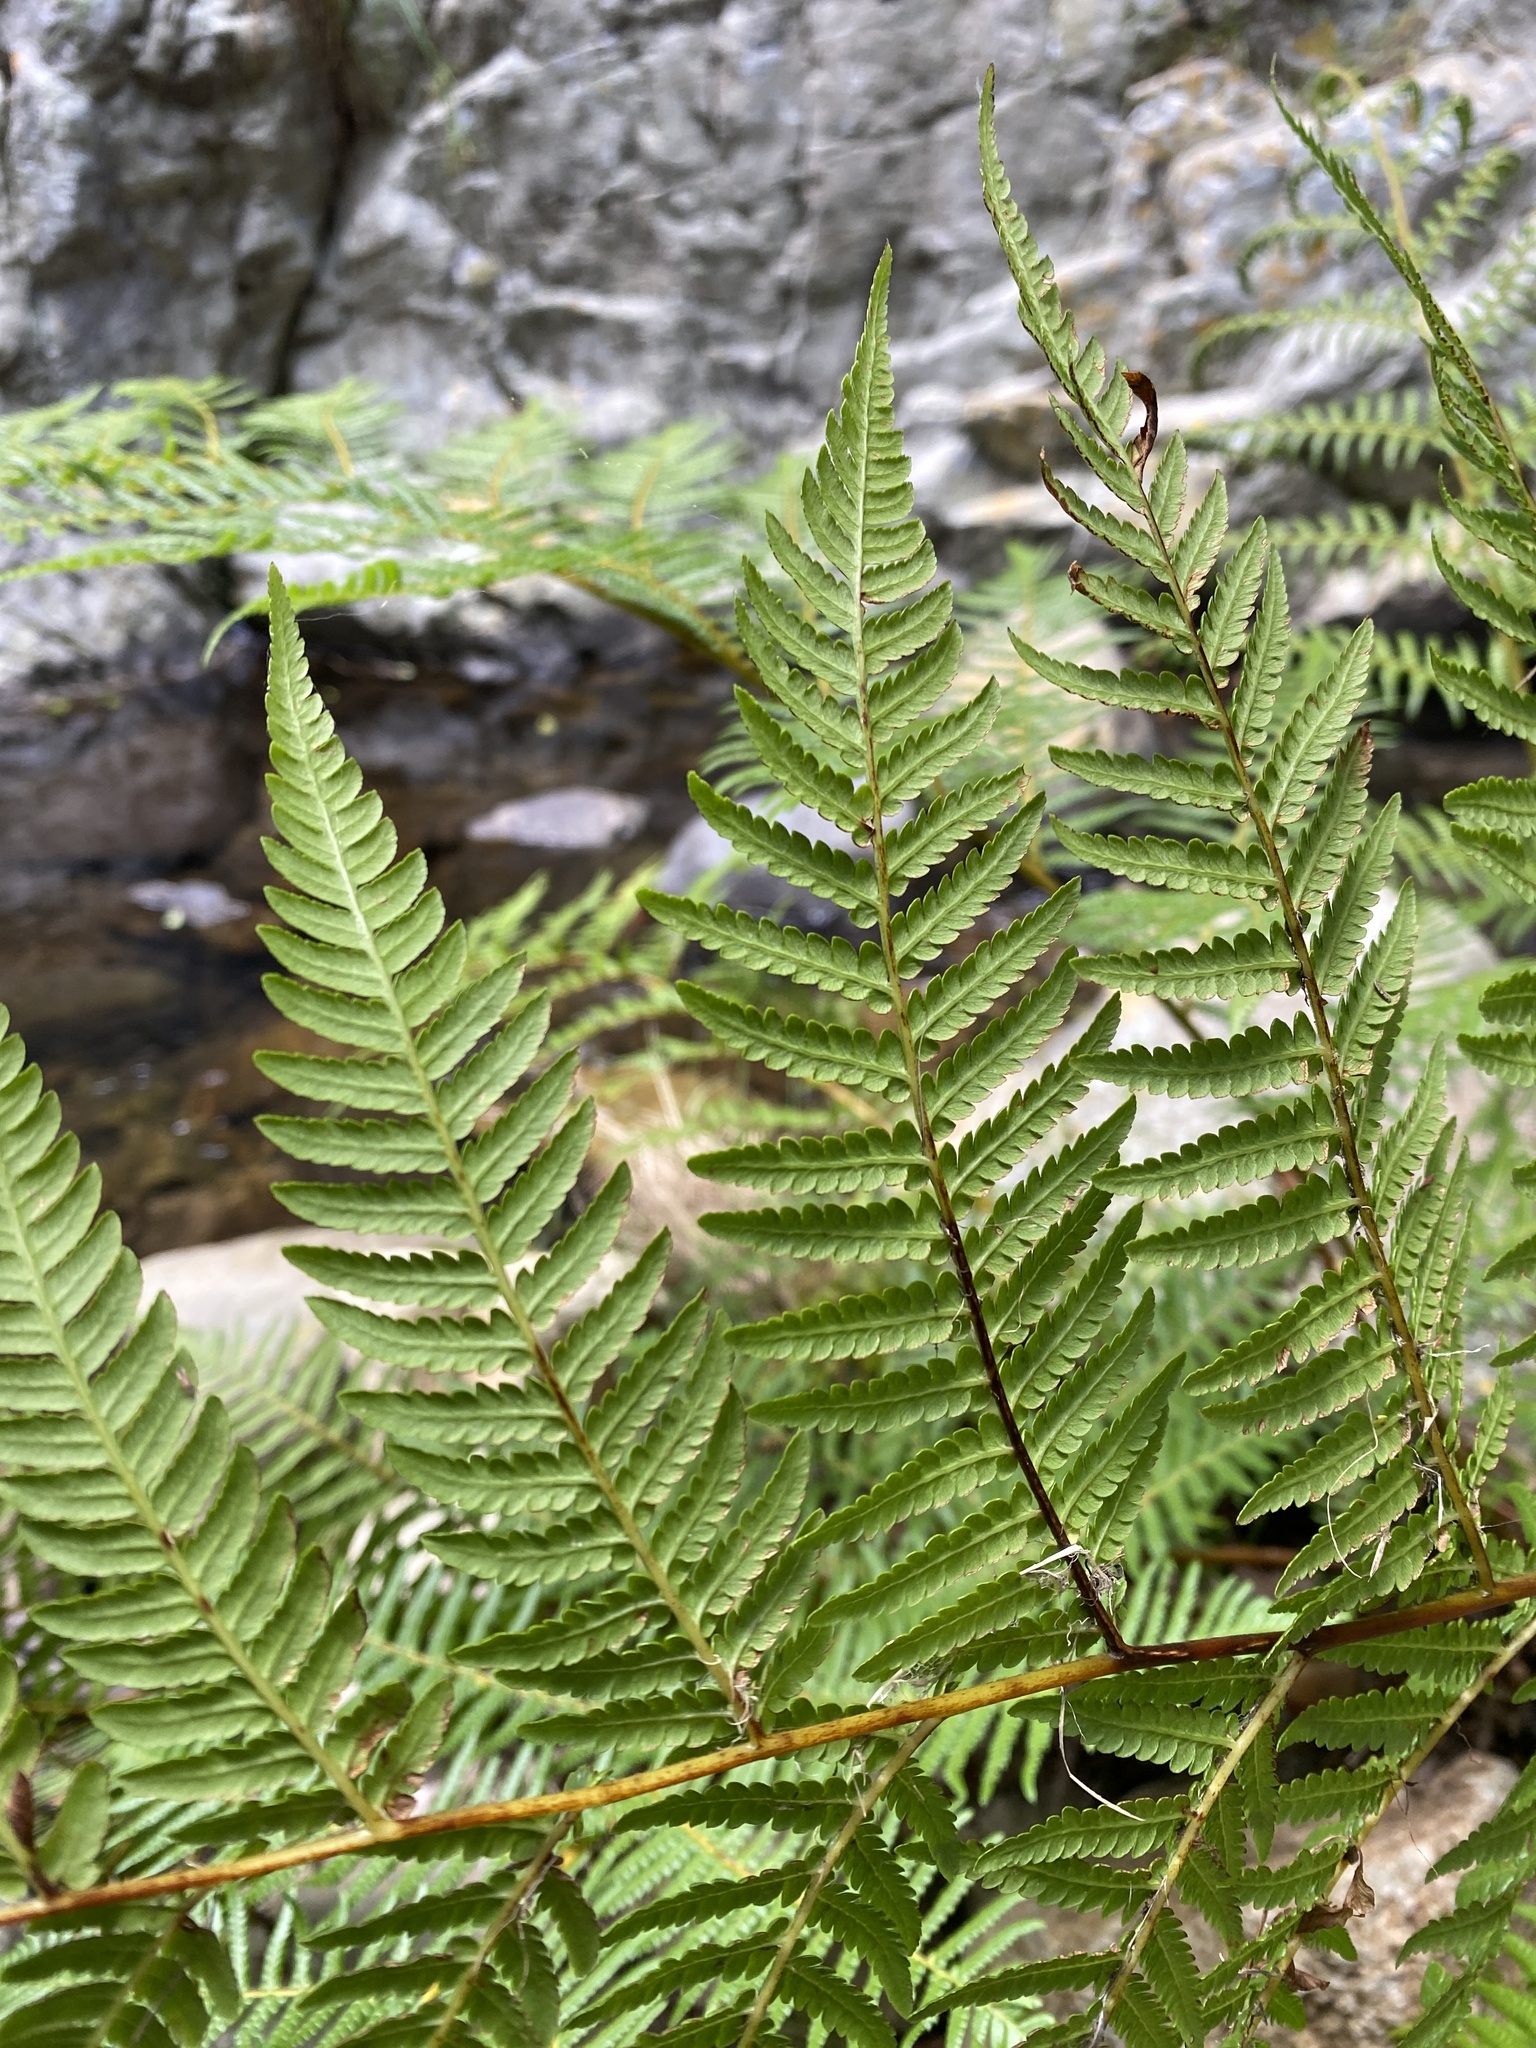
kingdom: Plantae
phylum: Tracheophyta
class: Polypodiopsida
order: Cyatheales
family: Cyatheaceae
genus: Alsophila
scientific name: Alsophila dregei
